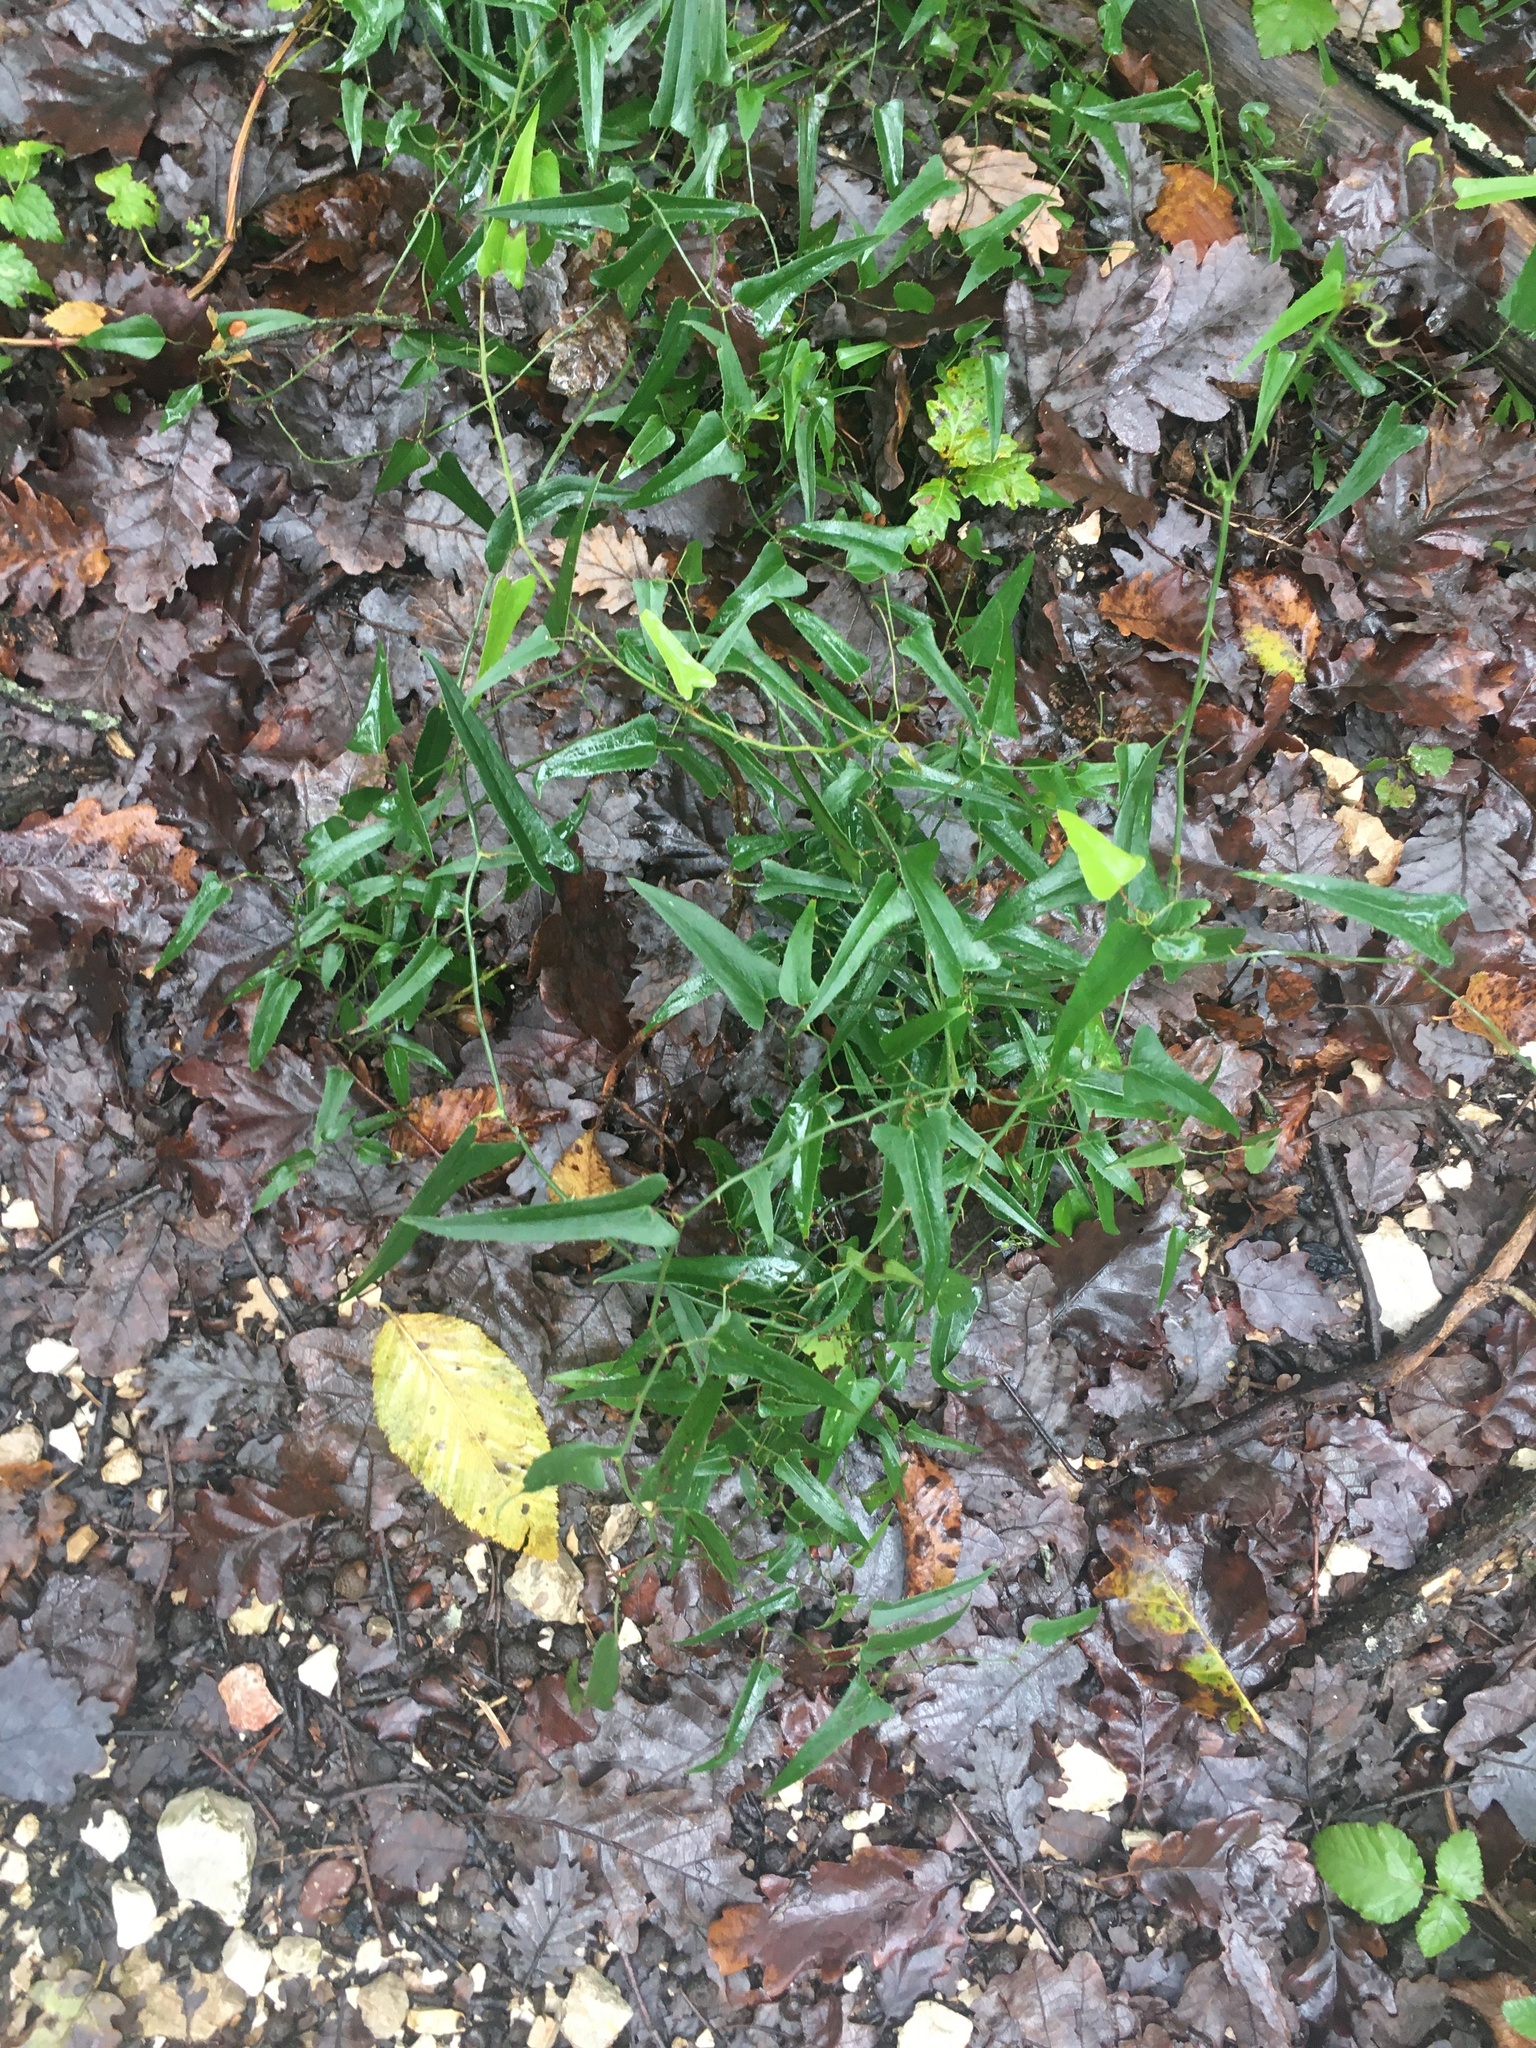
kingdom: Plantae
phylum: Tracheophyta
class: Liliopsida
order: Liliales
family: Smilacaceae
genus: Smilax
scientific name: Smilax aspera
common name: Common smilax
